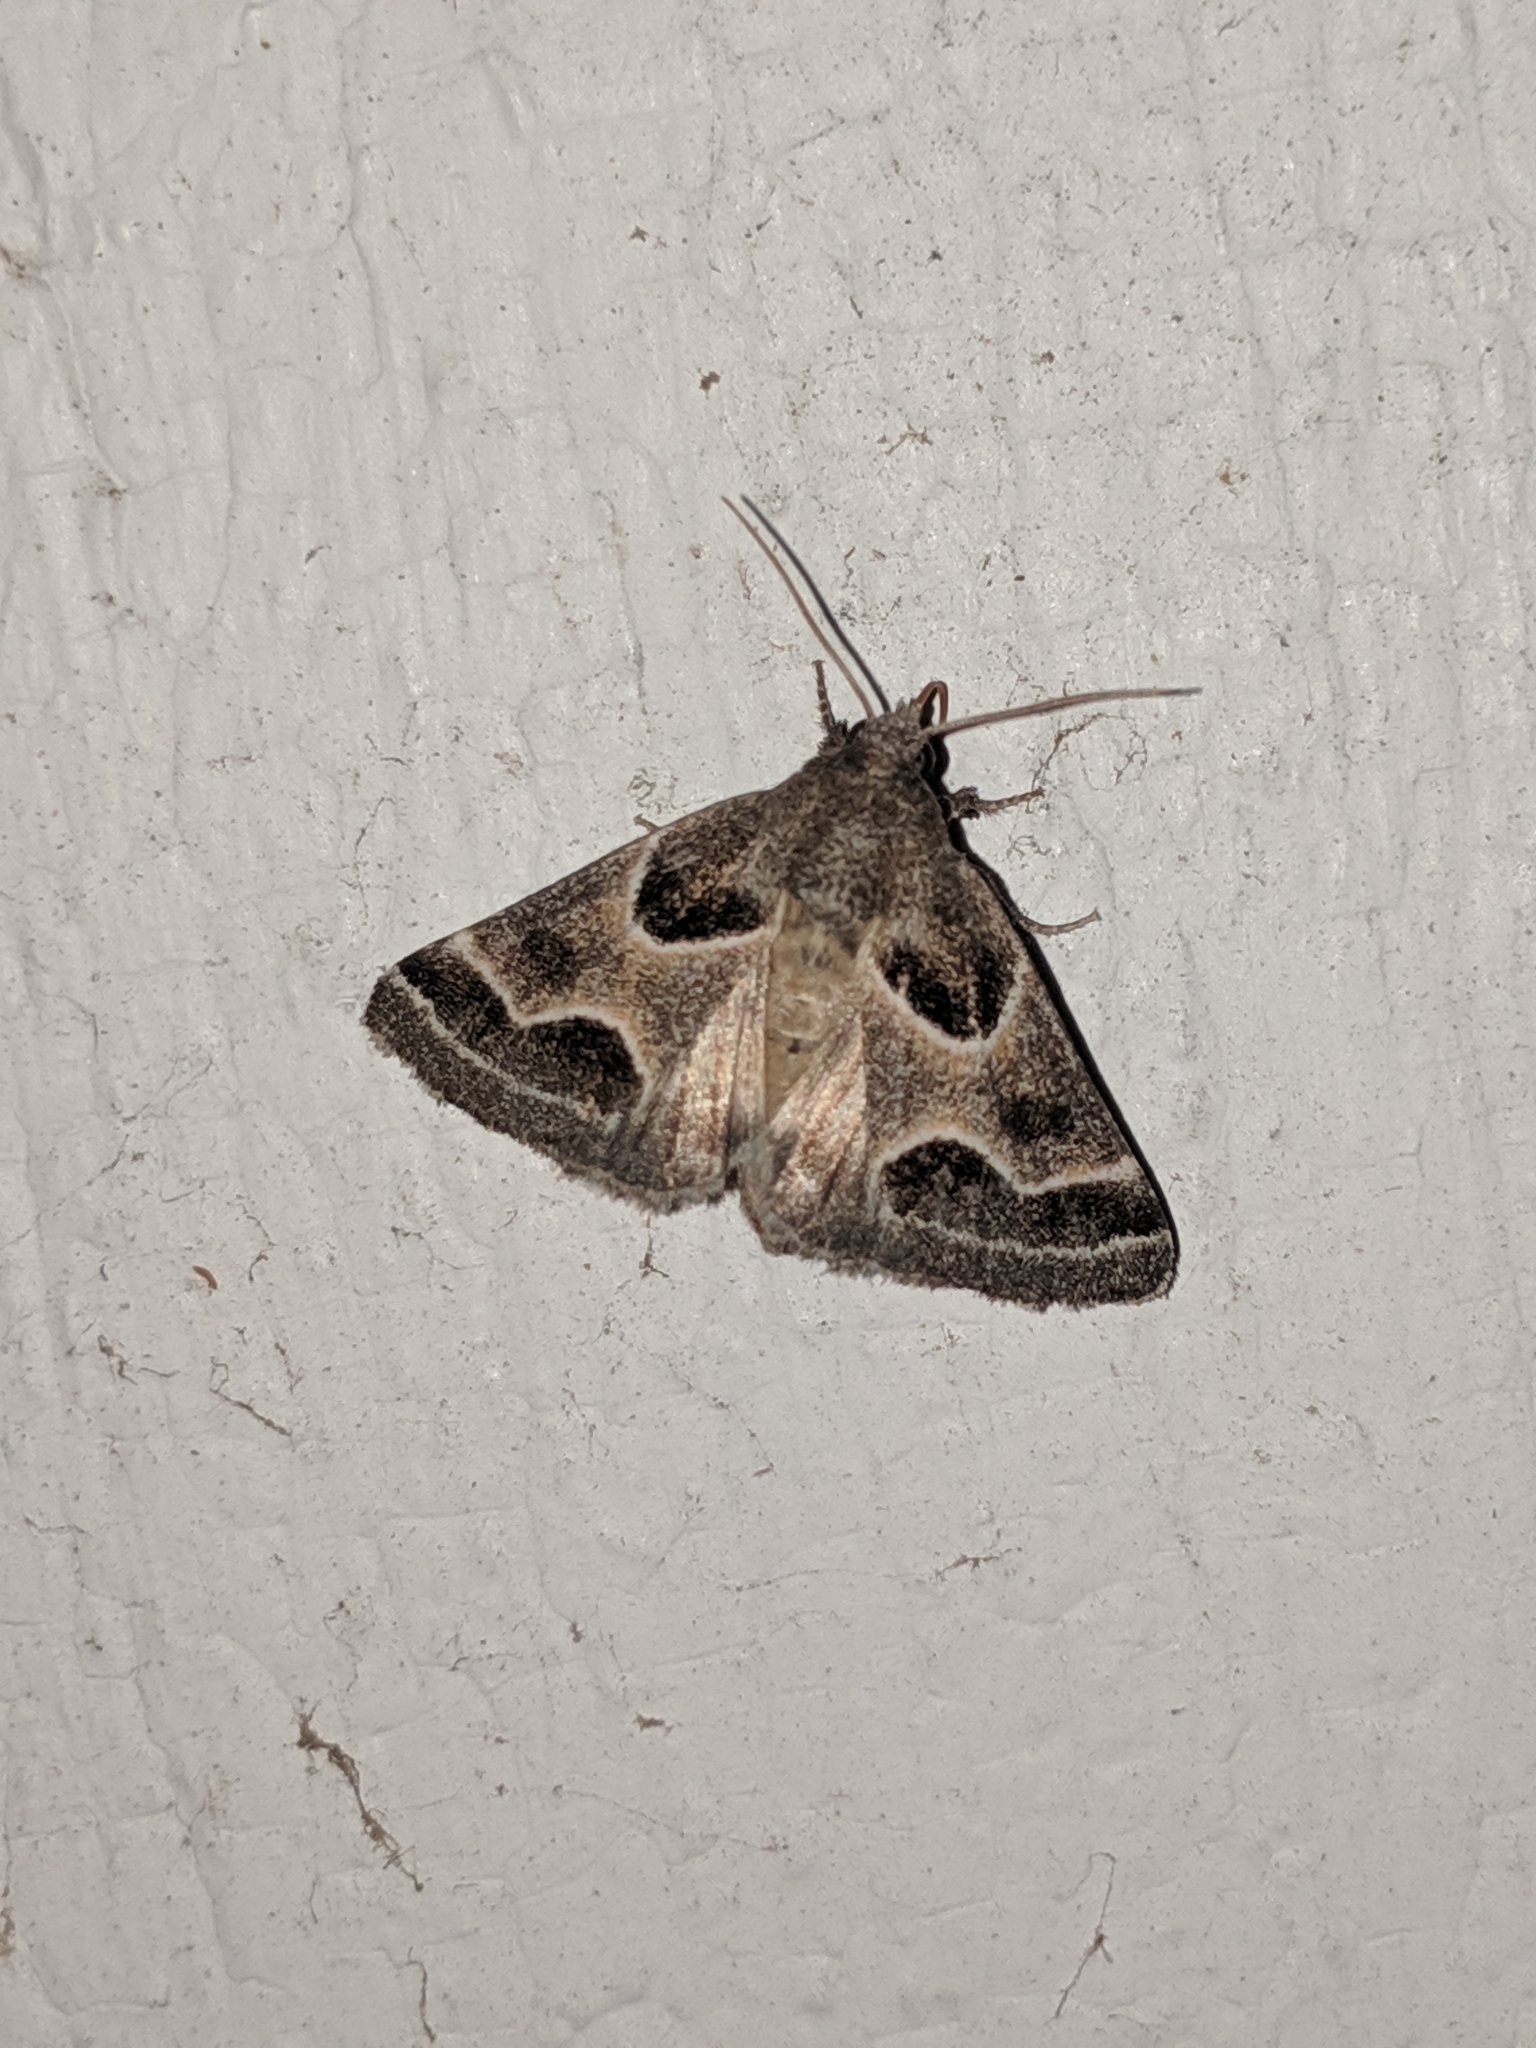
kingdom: Animalia
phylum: Arthropoda
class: Insecta
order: Lepidoptera
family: Noctuidae
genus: Schinia
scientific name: Schinia rivulosa
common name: Scarce meal-moth
